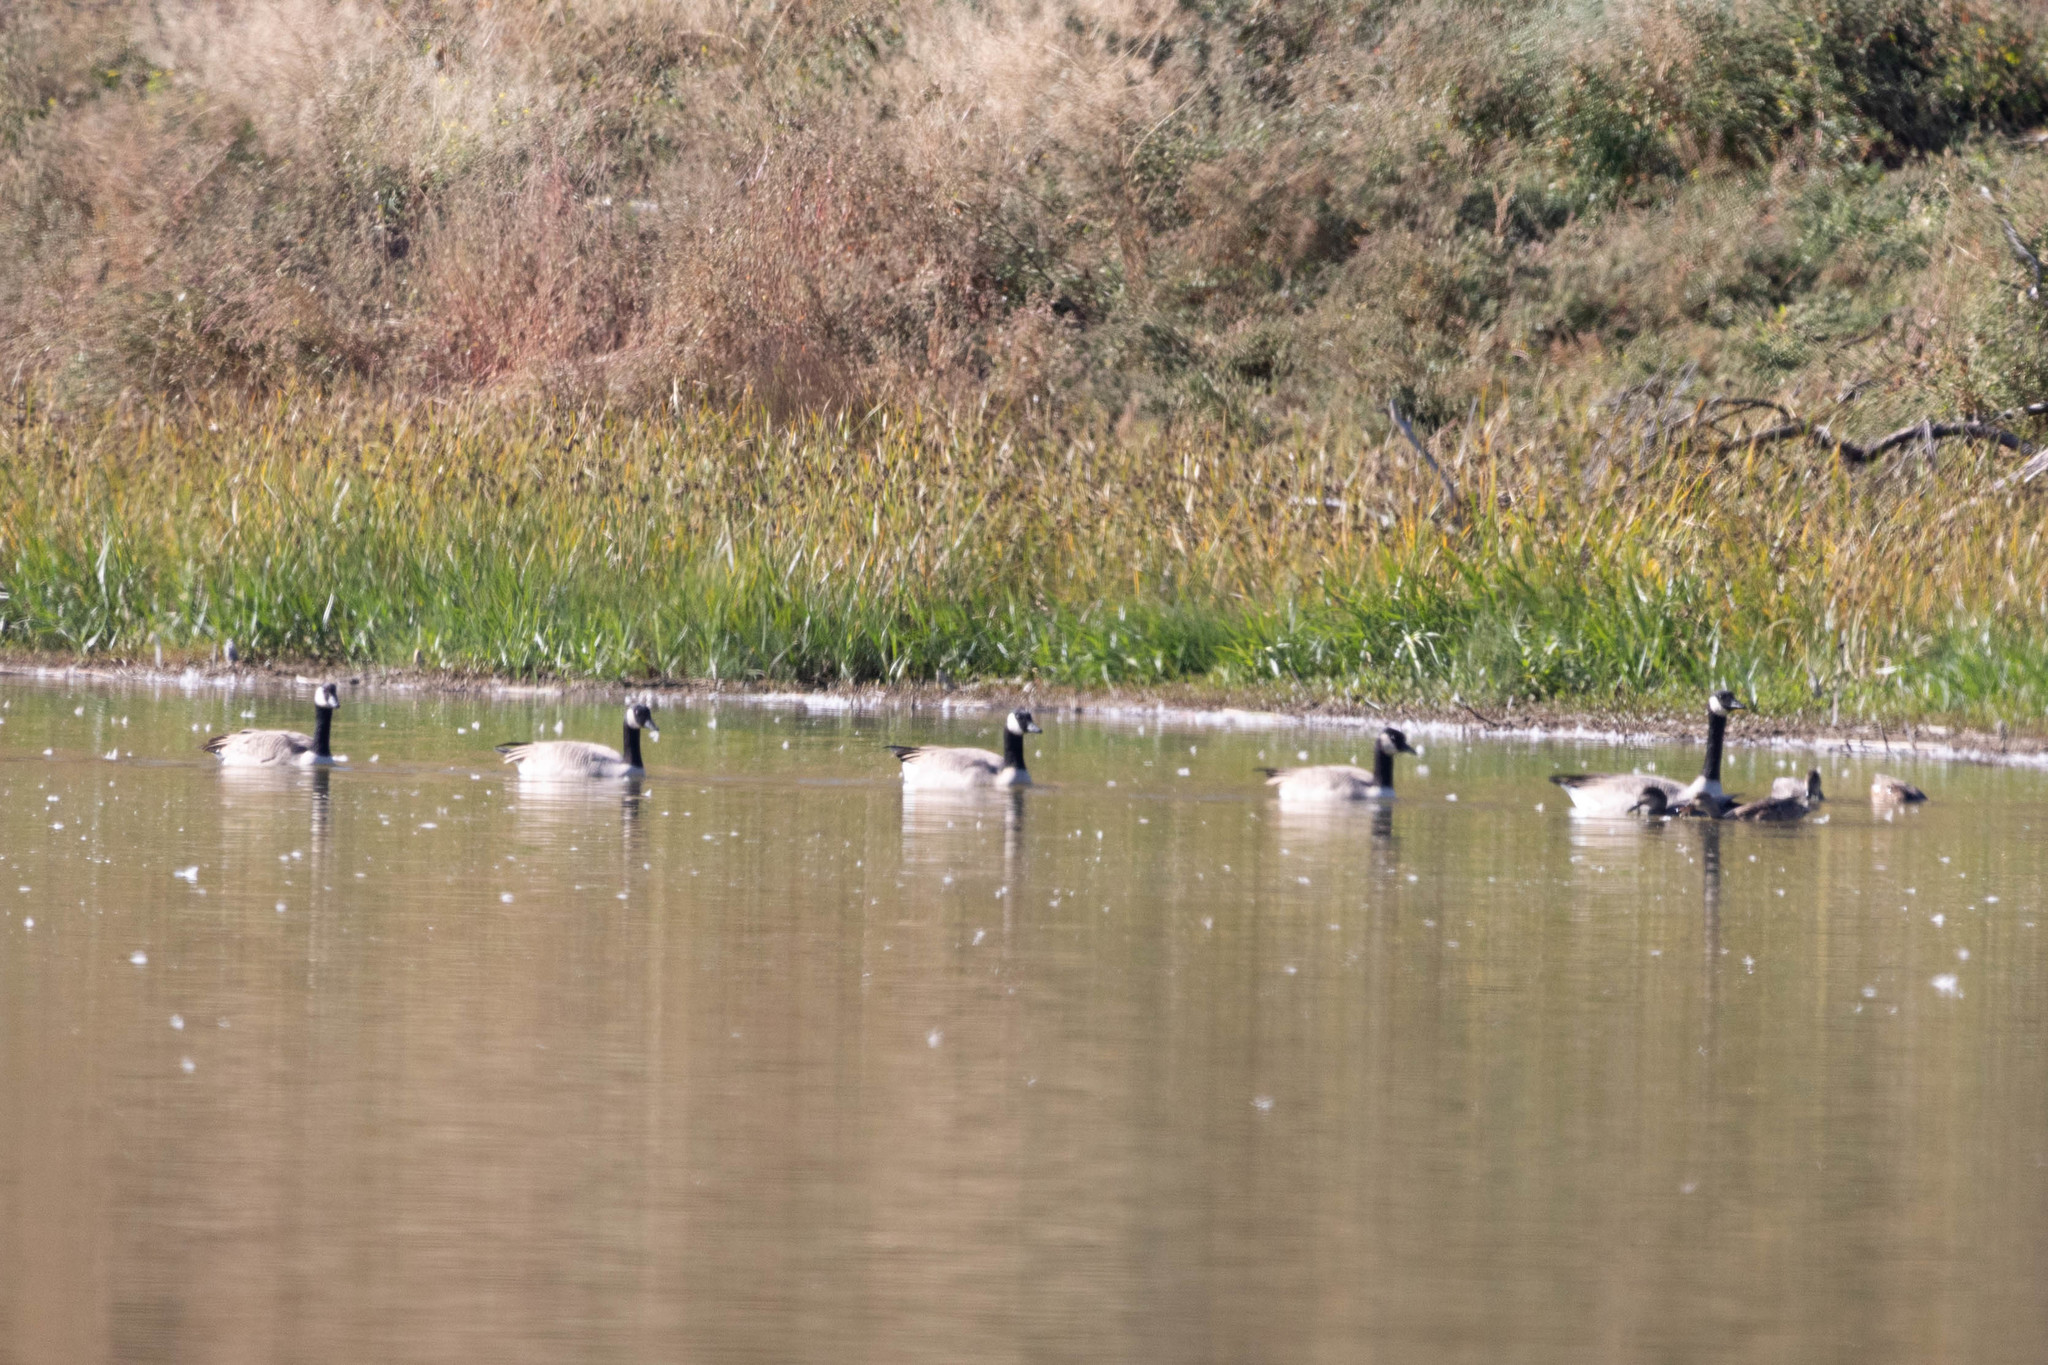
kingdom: Animalia
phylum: Chordata
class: Aves
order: Anseriformes
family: Anatidae
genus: Branta
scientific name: Branta canadensis
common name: Canada goose
